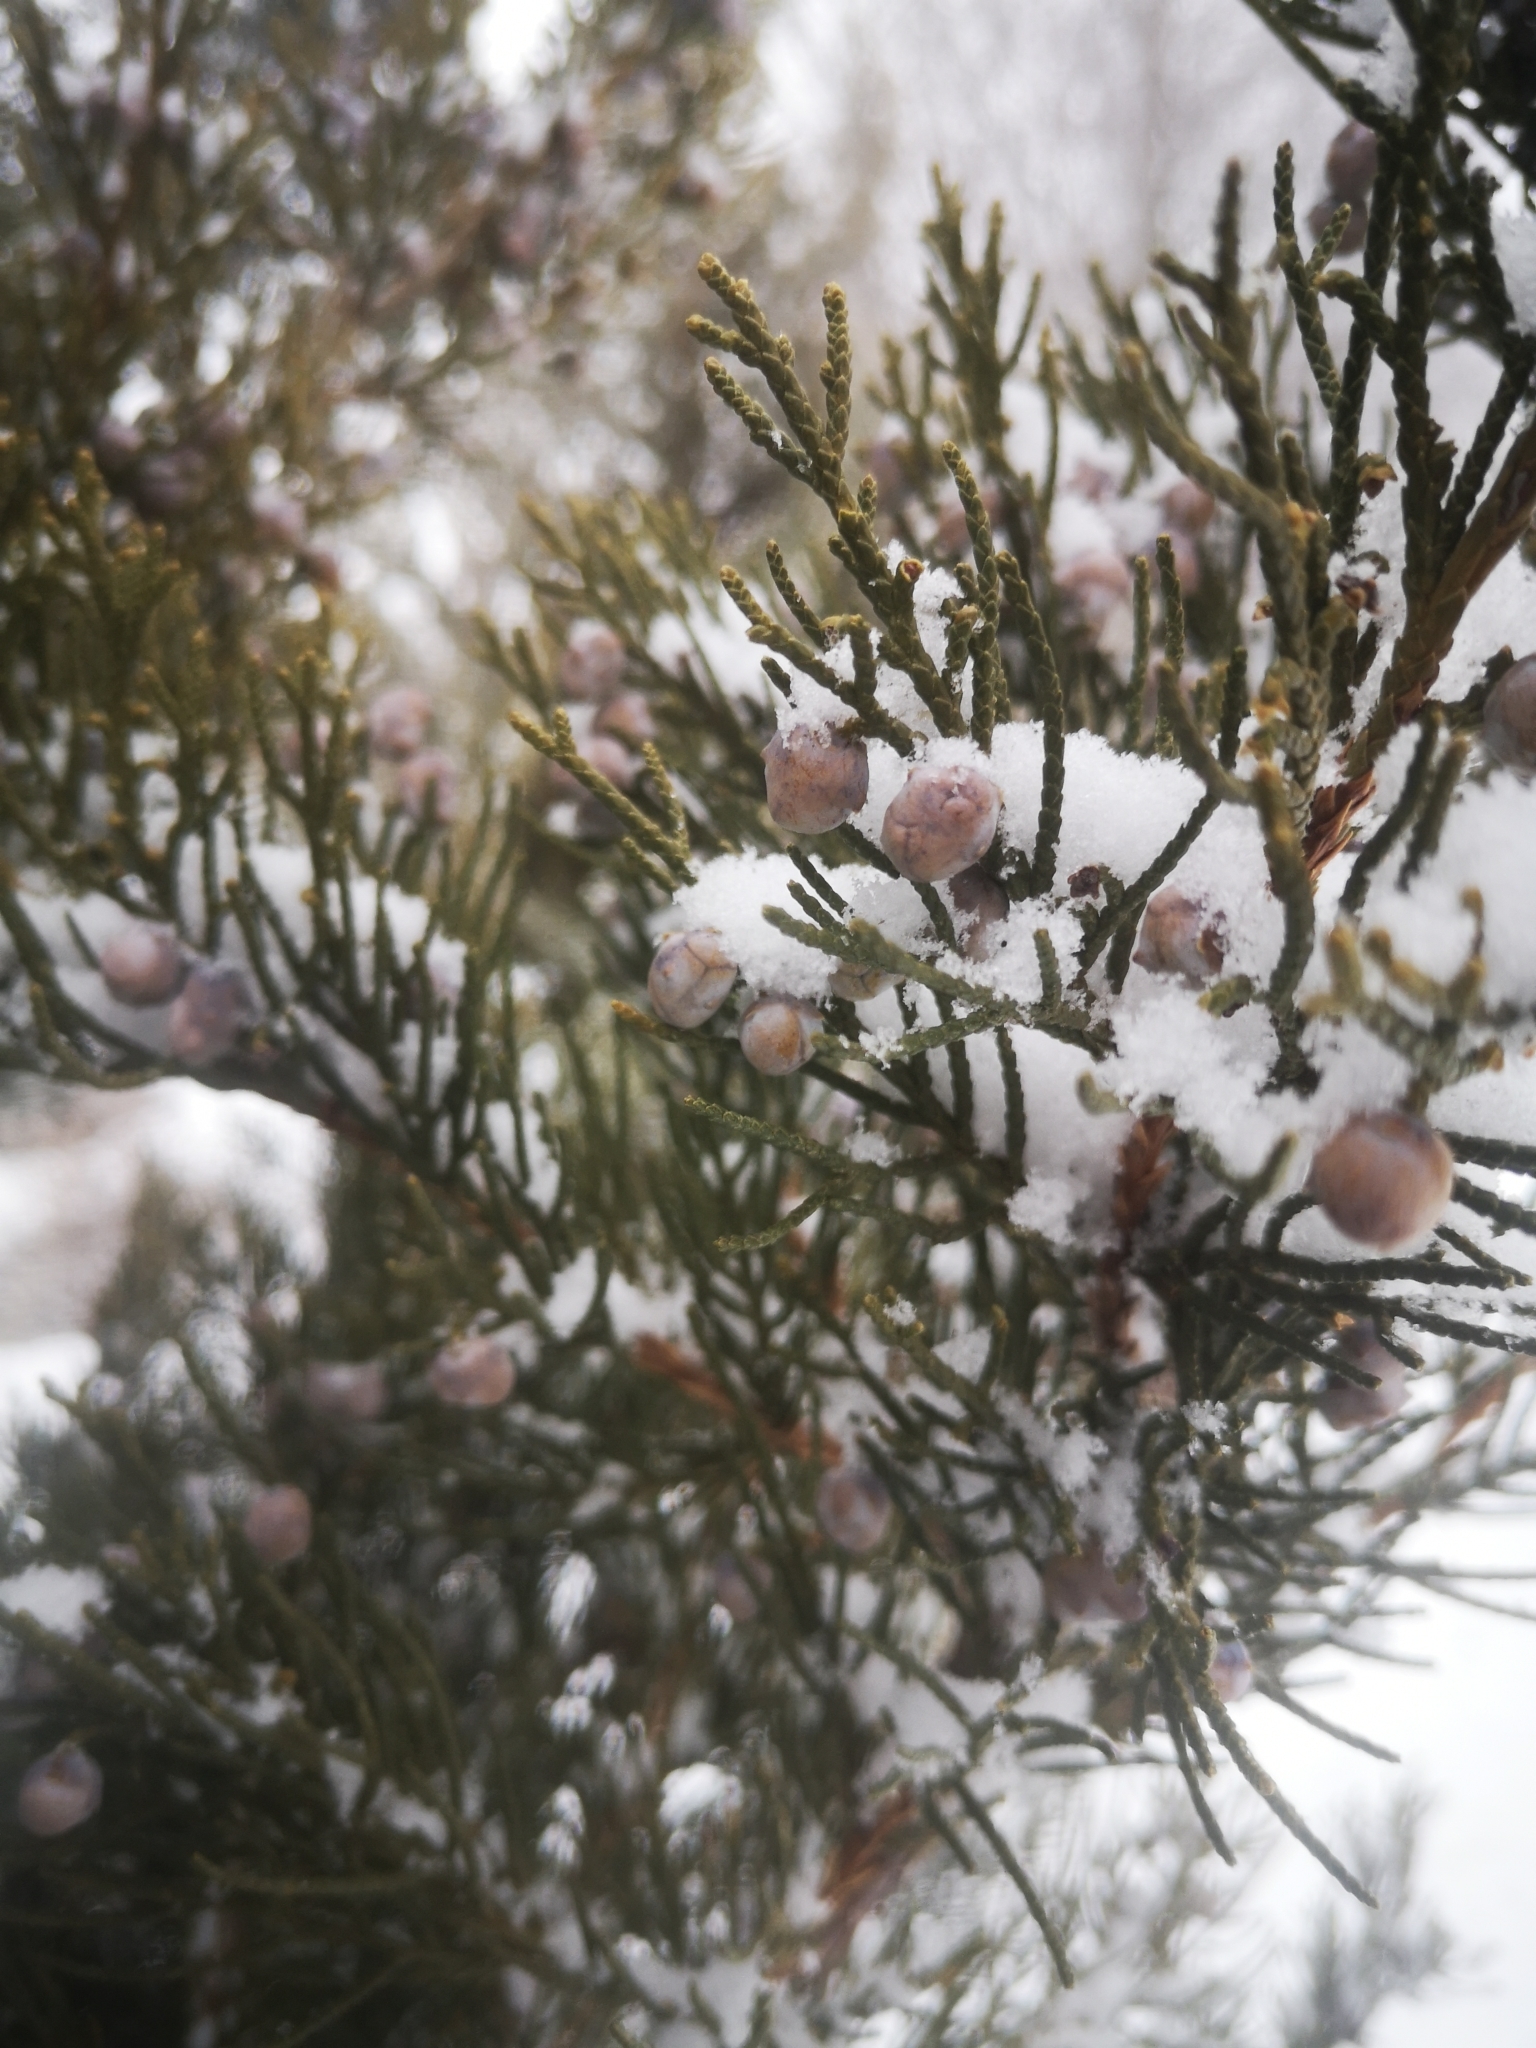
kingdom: Plantae
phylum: Tracheophyta
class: Pinopsida
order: Pinales
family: Cupressaceae
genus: Juniperus
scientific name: Juniperus virginiana
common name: Red juniper
